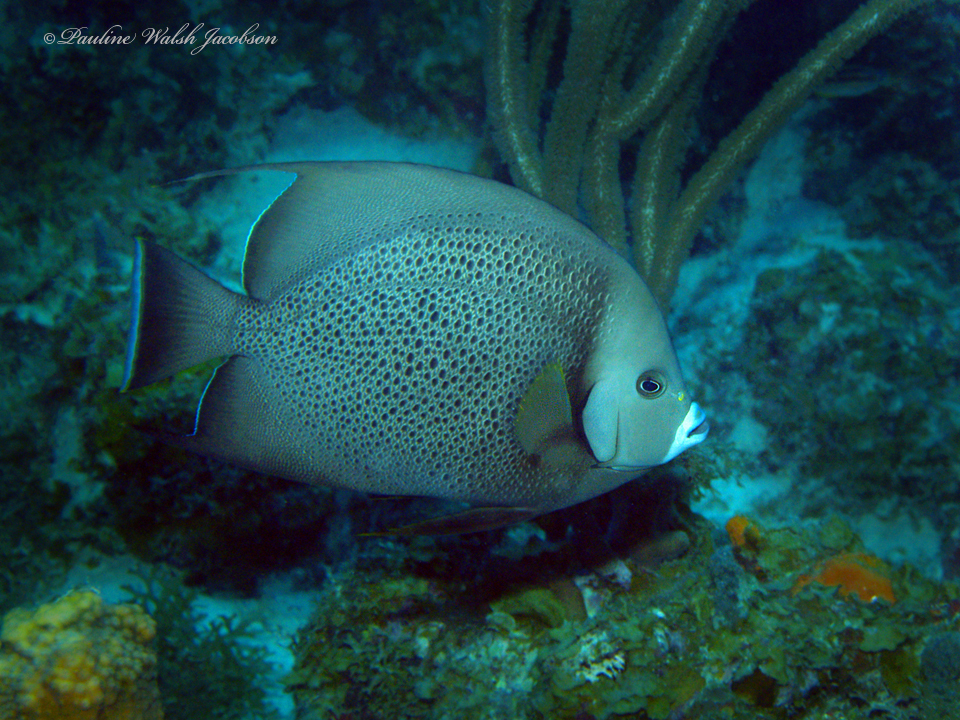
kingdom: Animalia
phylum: Chordata
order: Perciformes
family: Pomacanthidae
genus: Pomacanthus
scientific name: Pomacanthus arcuatus
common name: Gray angelfish
